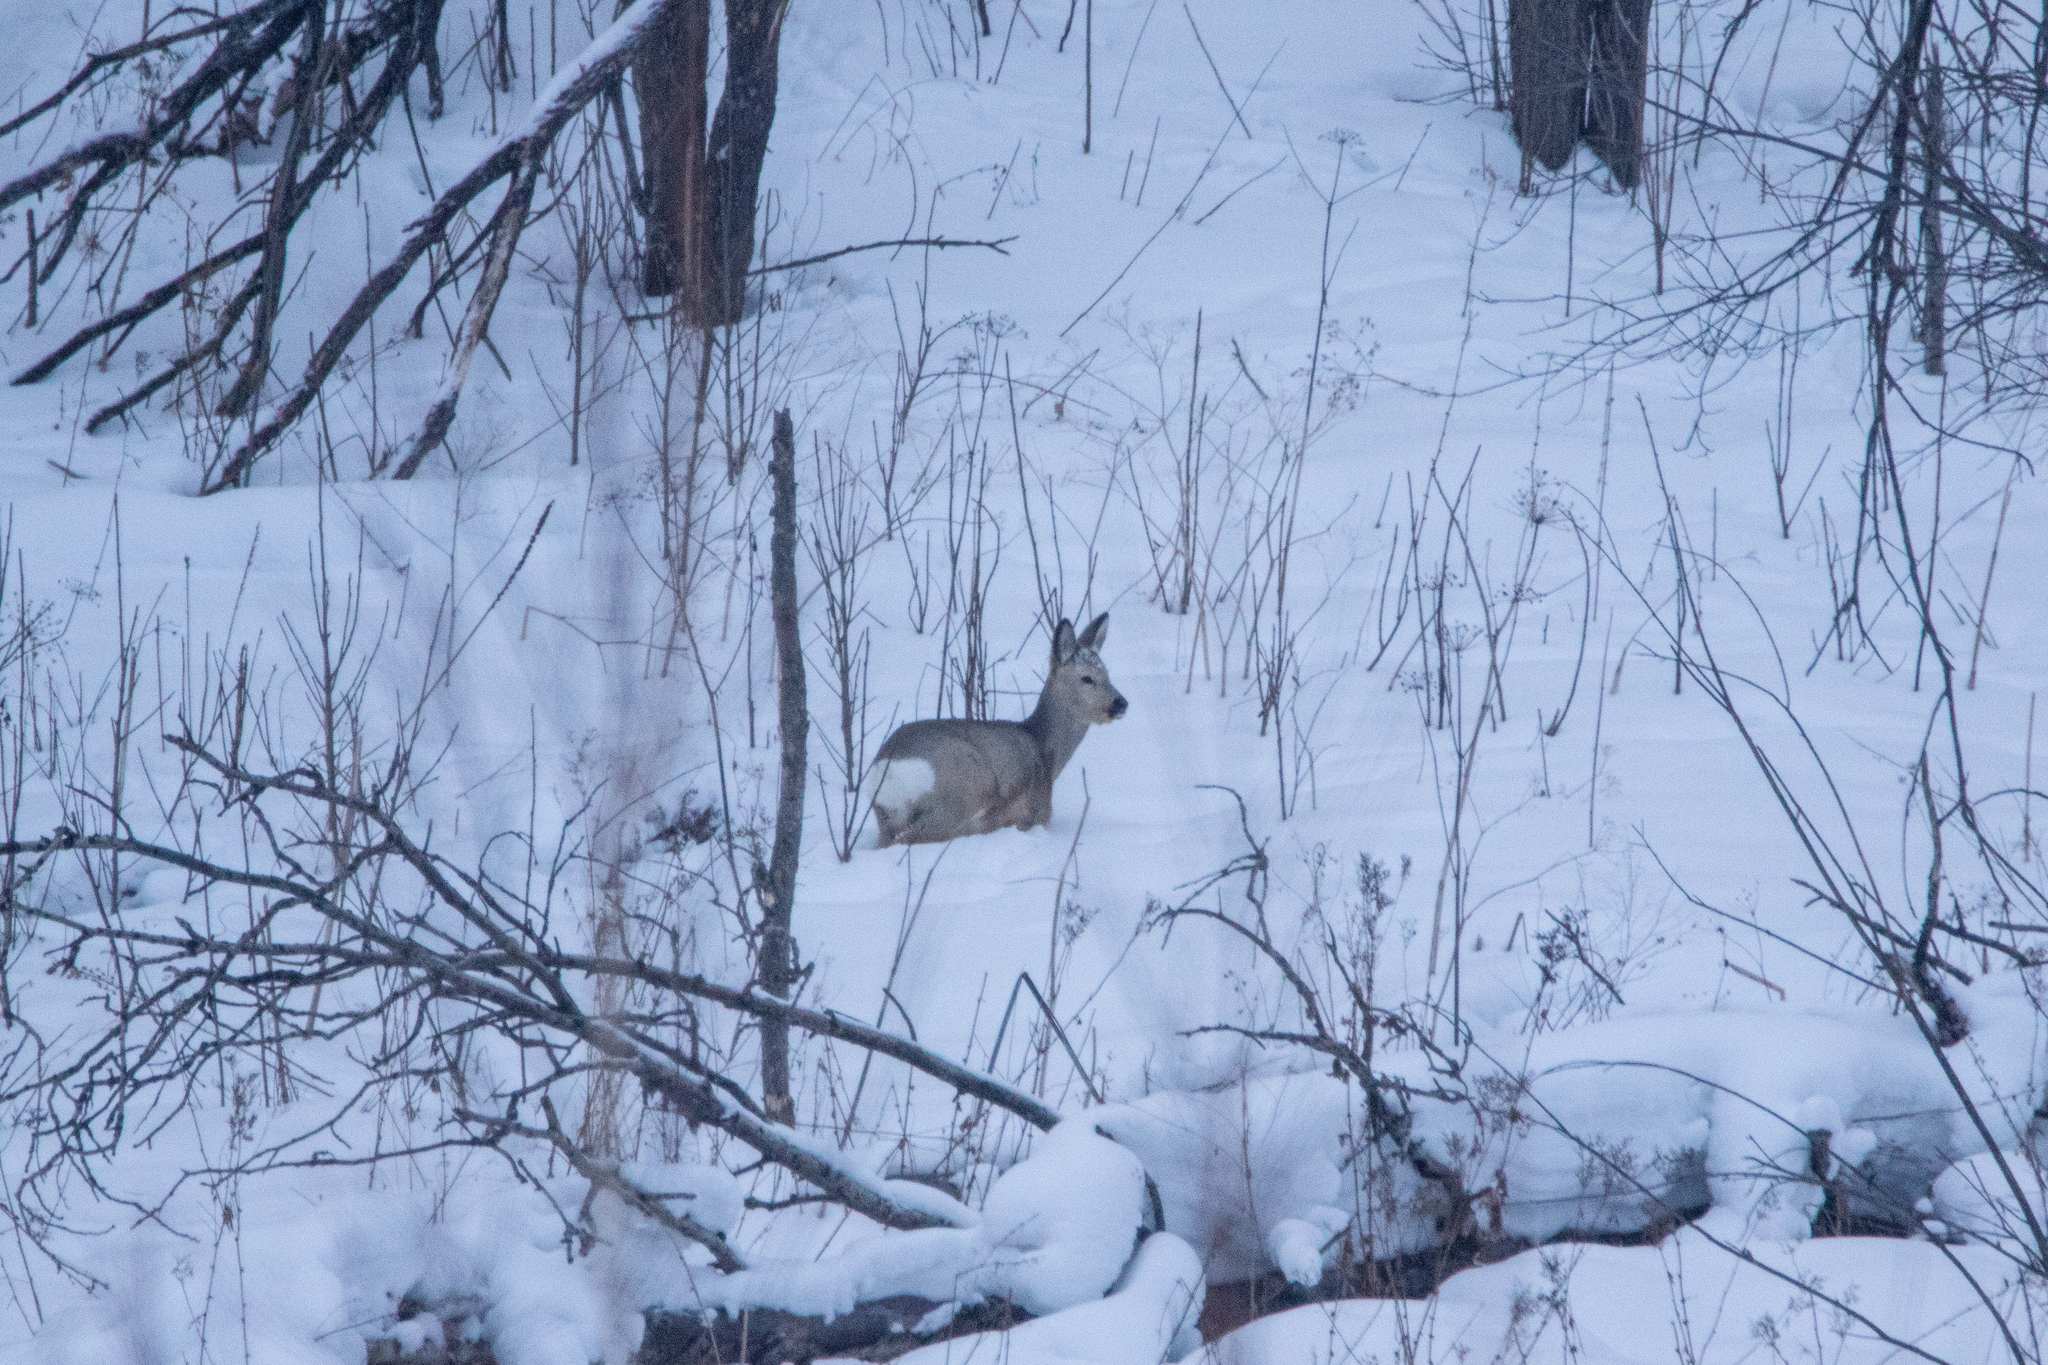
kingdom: Animalia
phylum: Chordata
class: Mammalia
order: Artiodactyla
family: Cervidae
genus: Capreolus
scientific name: Capreolus pygargus
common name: Siberian roe
